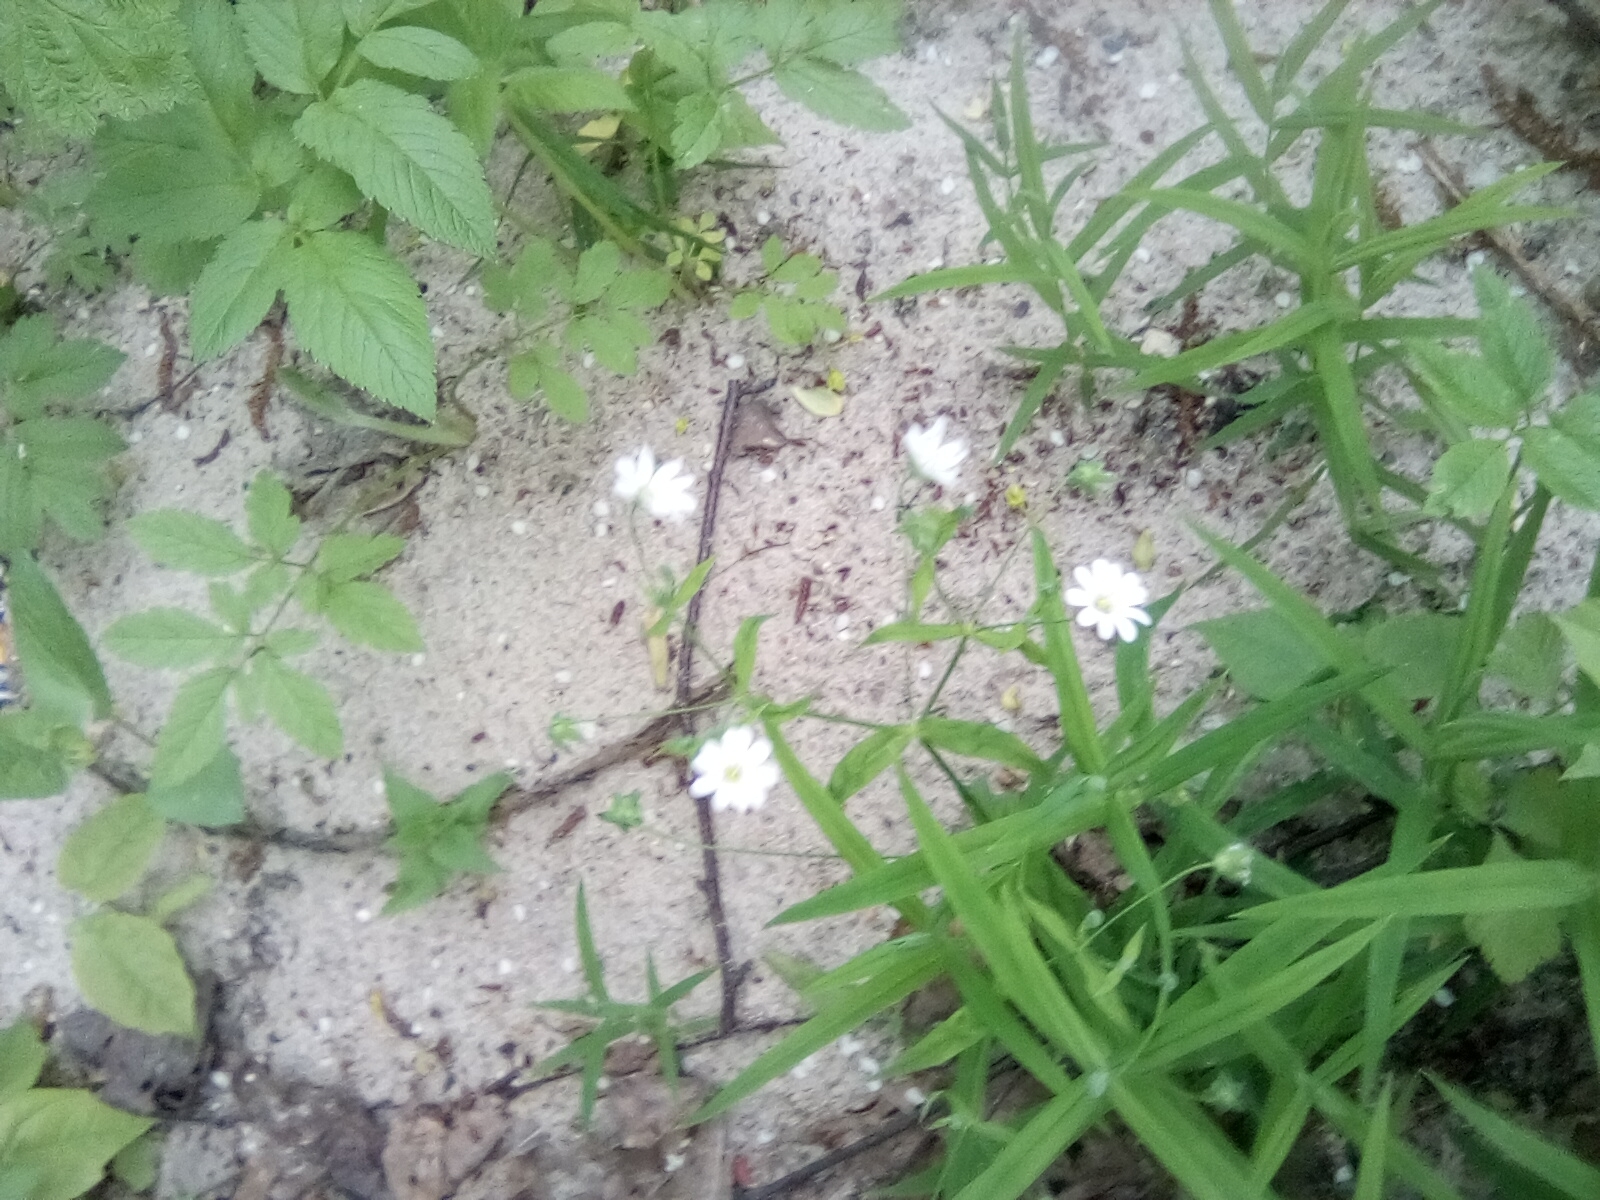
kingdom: Plantae
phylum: Tracheophyta
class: Magnoliopsida
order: Caryophyllales
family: Caryophyllaceae
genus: Rabelera
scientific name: Rabelera holostea
